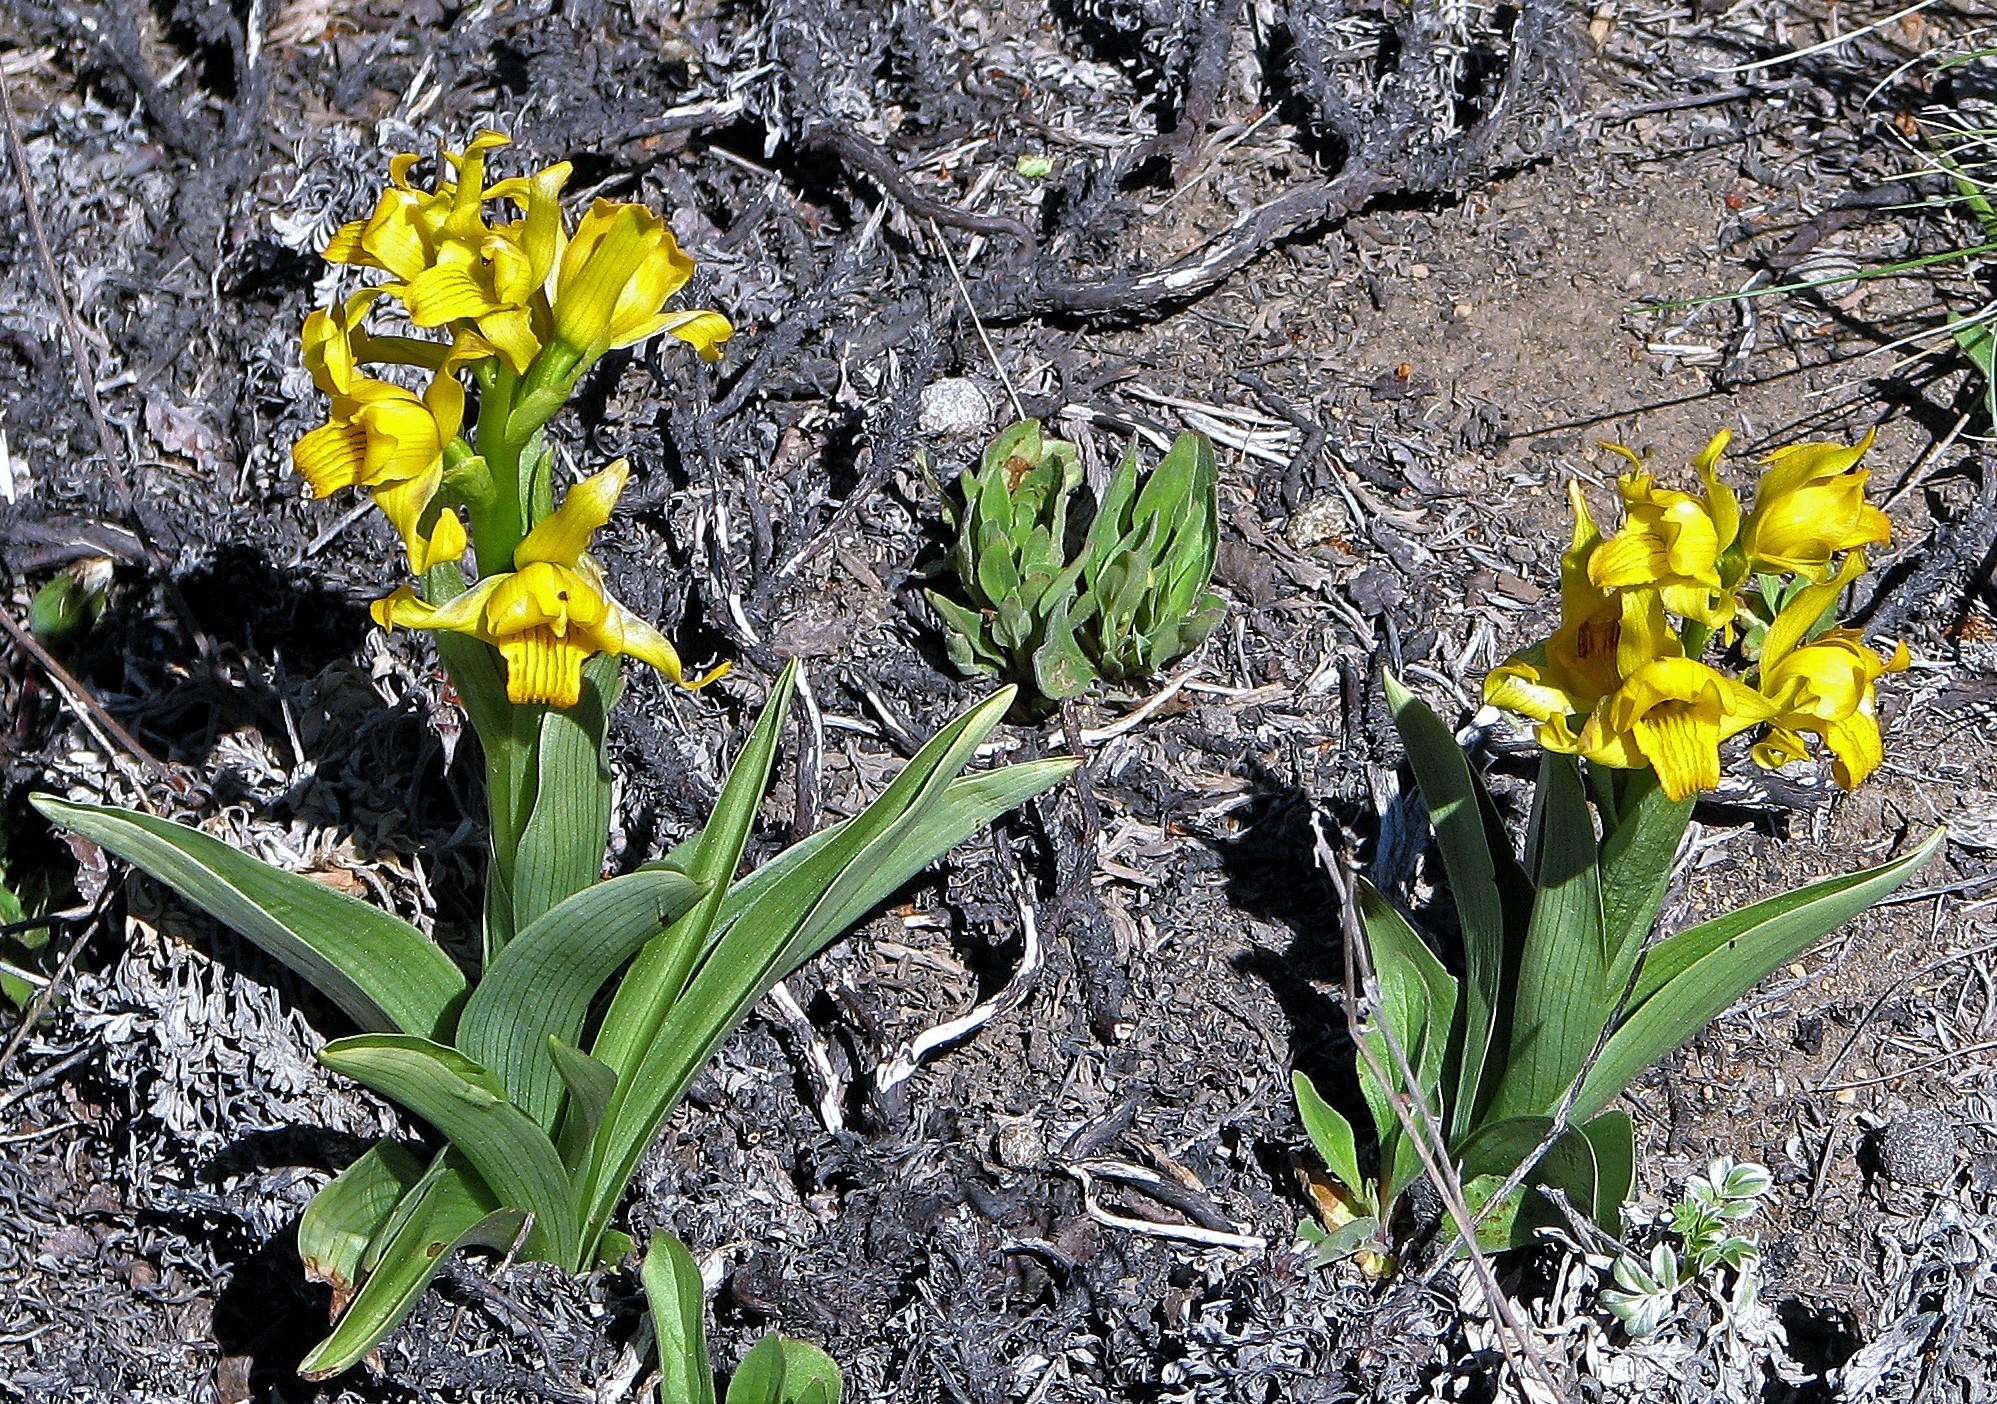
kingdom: Plantae
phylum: Tracheophyta
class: Liliopsida
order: Asparagales
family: Orchidaceae
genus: Chloraea
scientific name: Chloraea alpina
